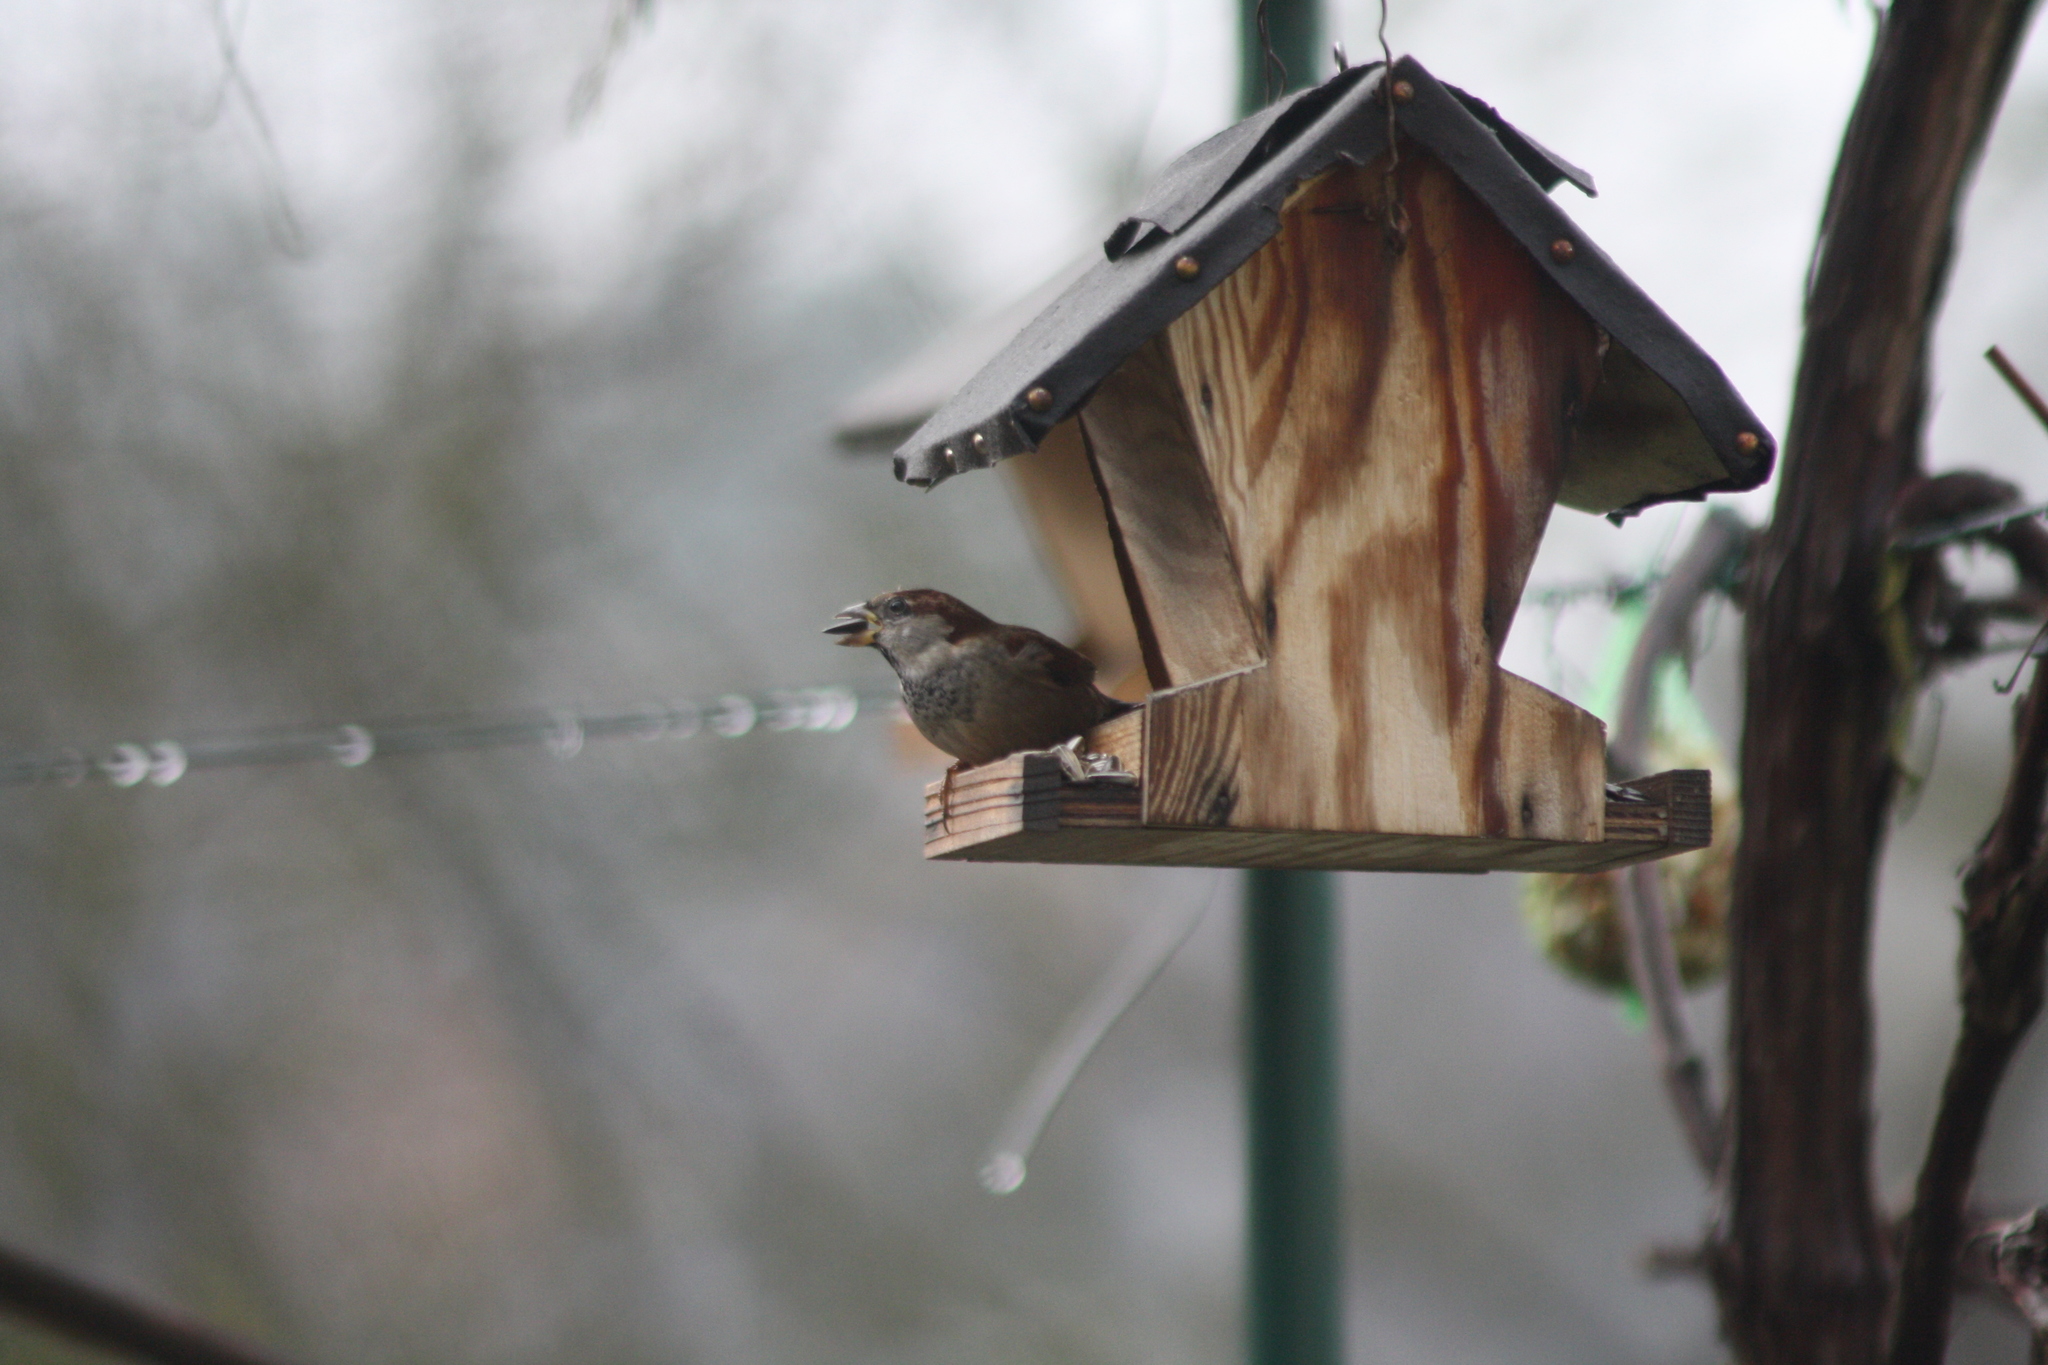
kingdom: Animalia
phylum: Chordata
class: Aves
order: Passeriformes
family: Passeridae
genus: Passer
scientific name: Passer domesticus
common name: House sparrow
